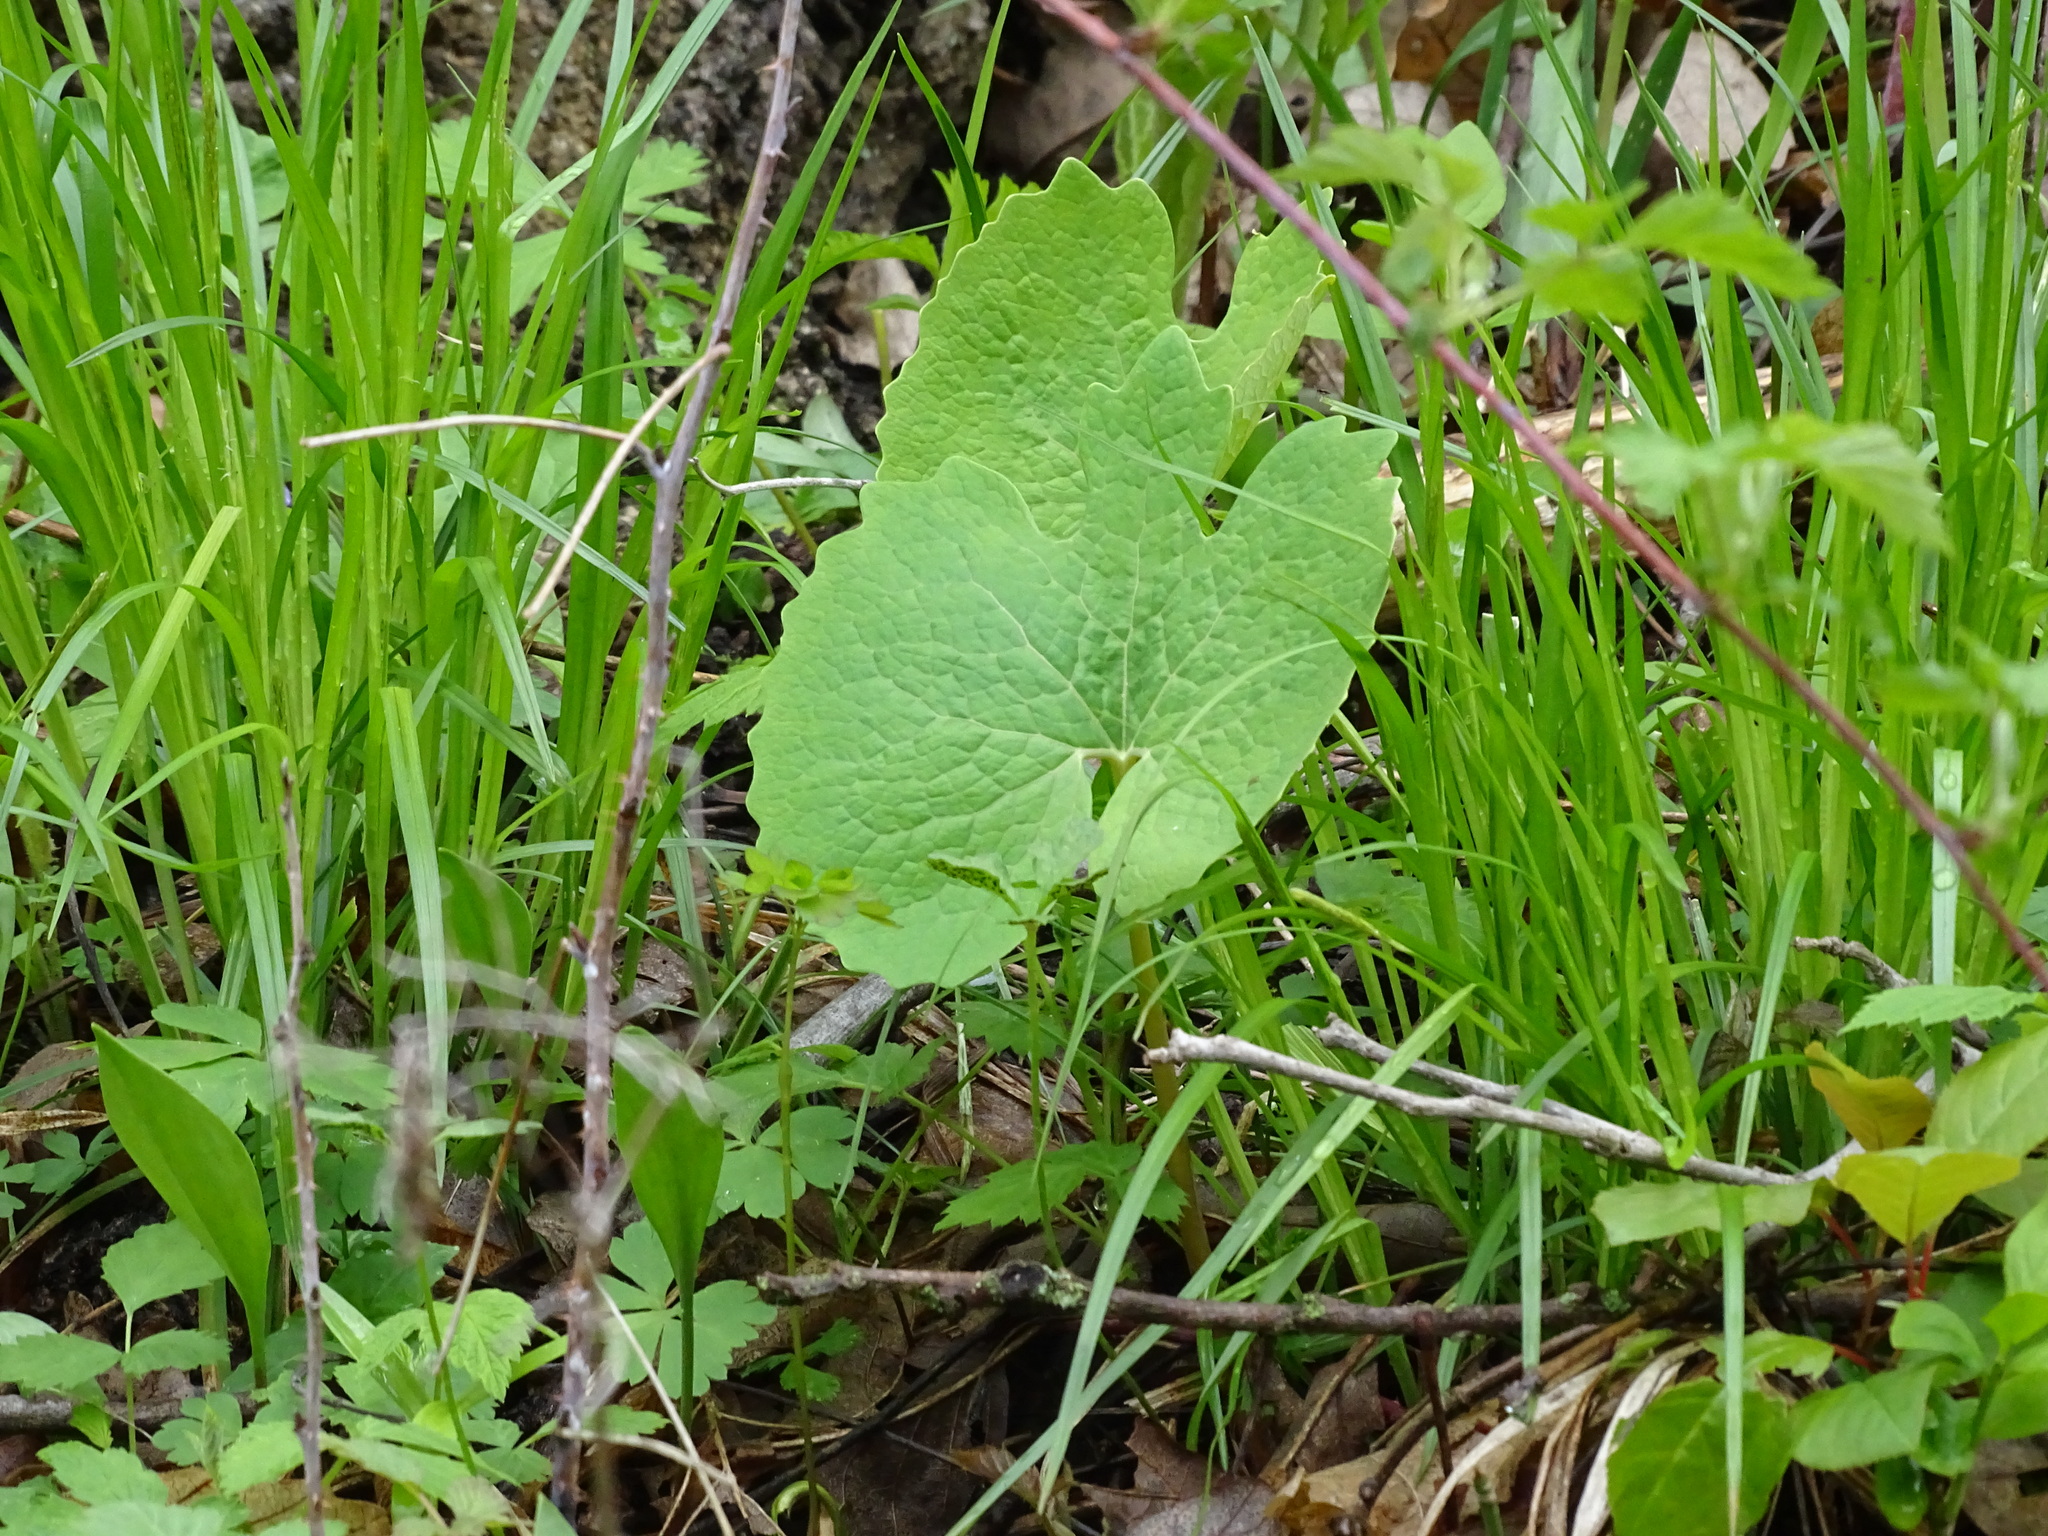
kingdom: Plantae
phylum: Tracheophyta
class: Magnoliopsida
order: Ranunculales
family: Papaveraceae
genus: Sanguinaria
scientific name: Sanguinaria canadensis
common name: Bloodroot
